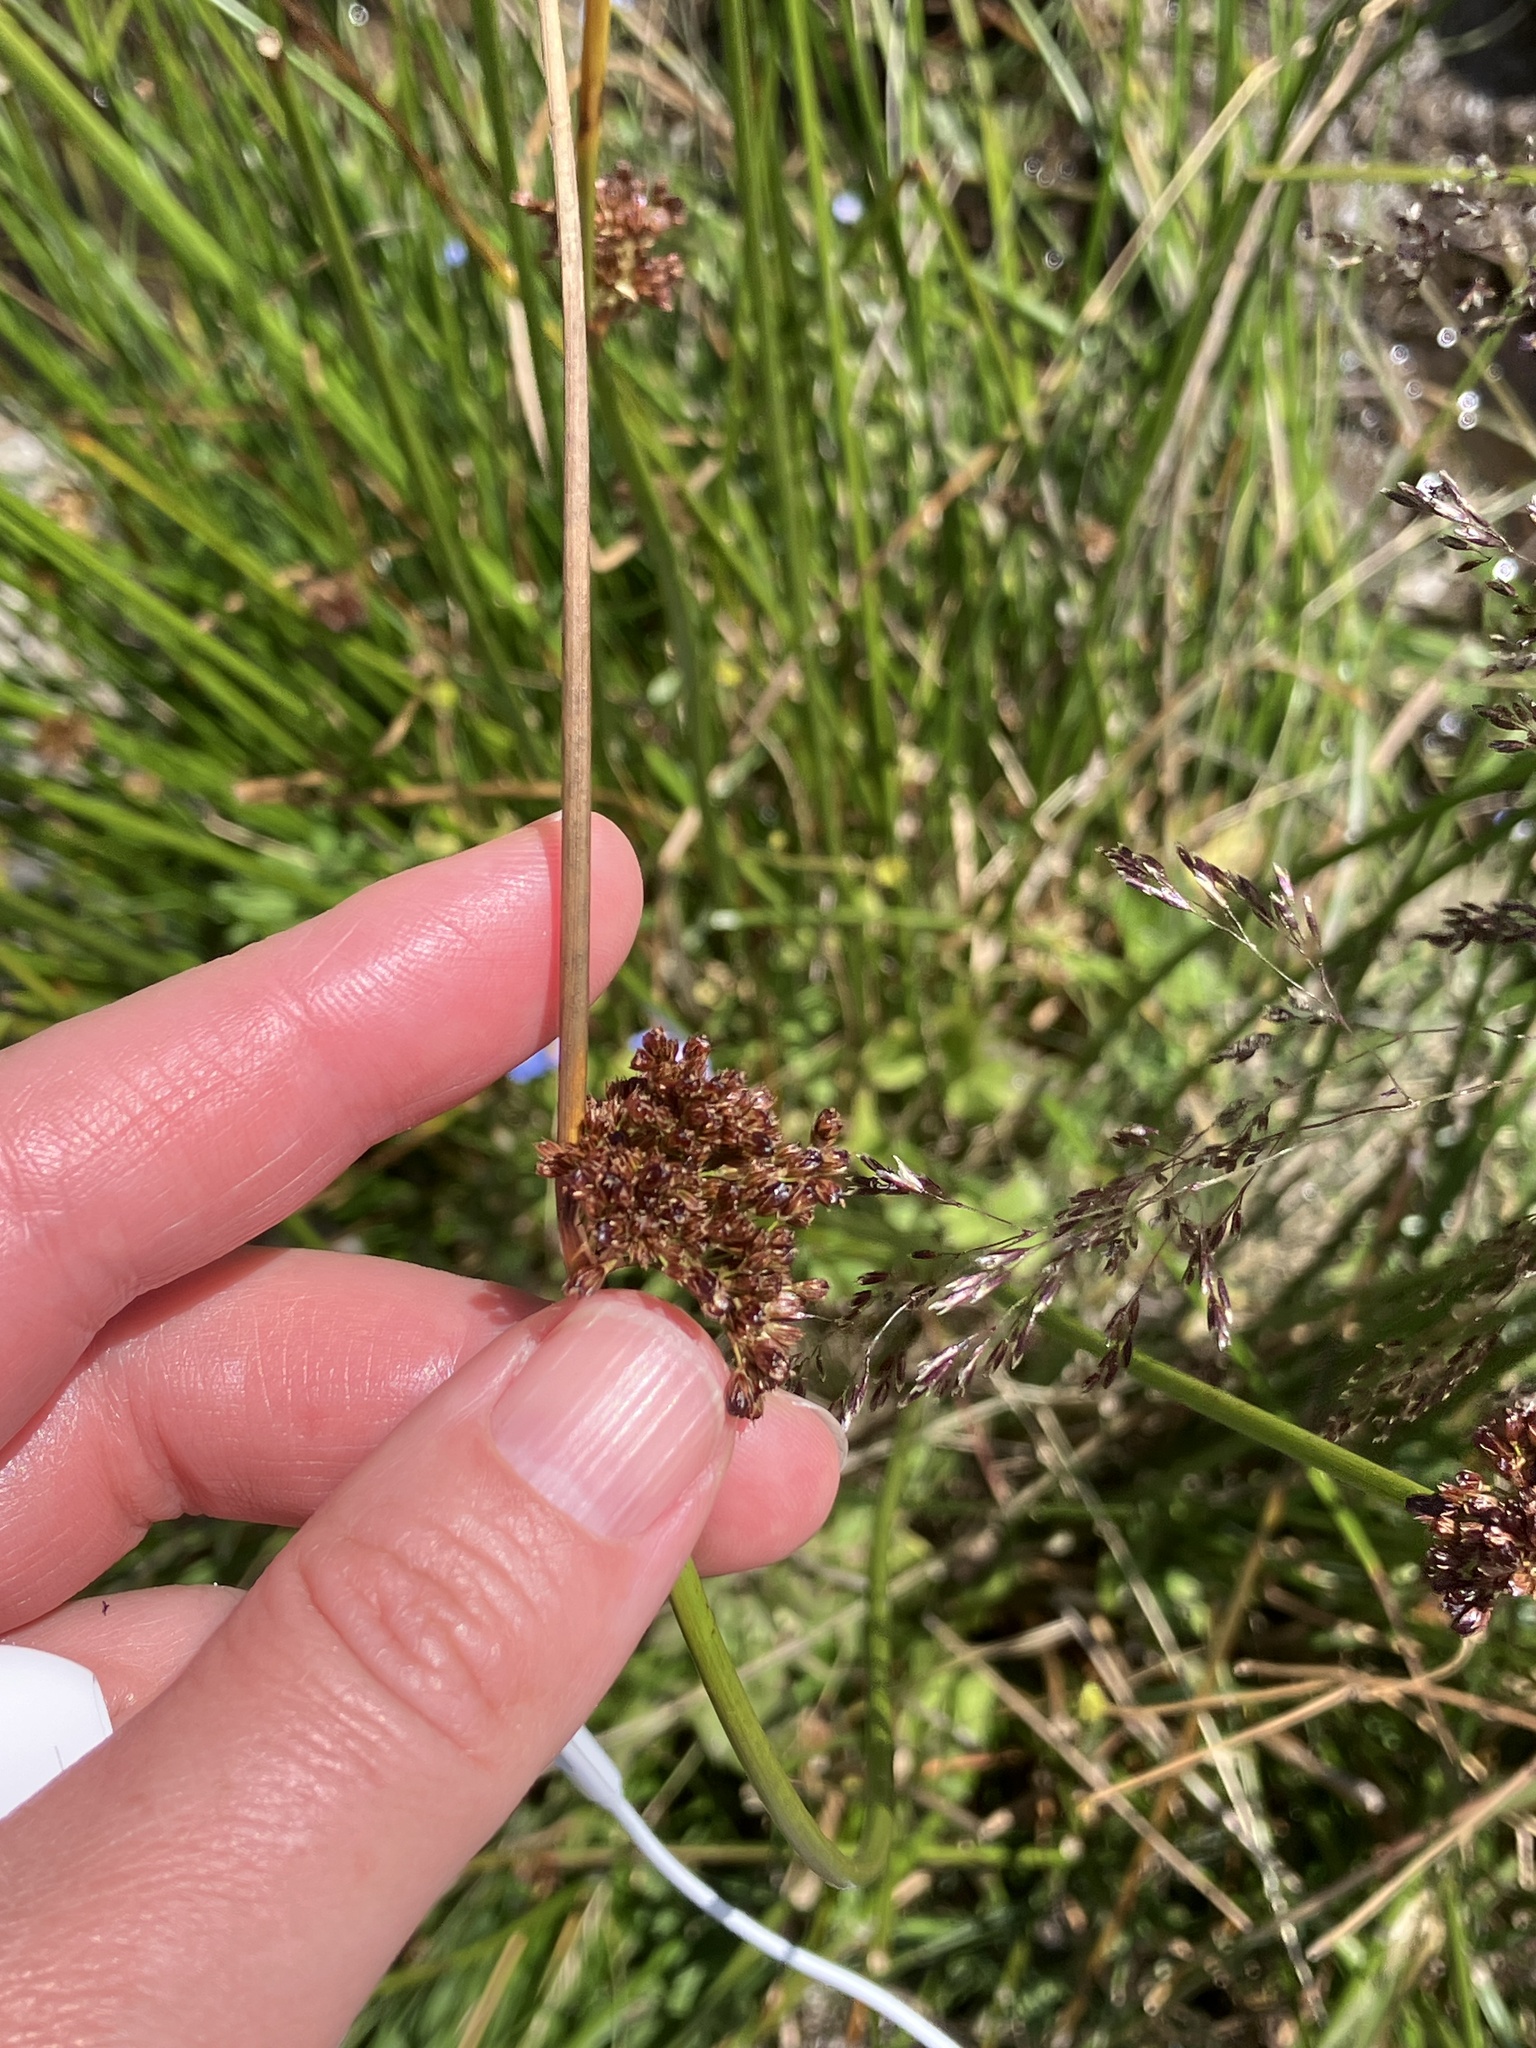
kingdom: Plantae
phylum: Tracheophyta
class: Liliopsida
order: Poales
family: Juncaceae
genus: Juncus
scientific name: Juncus effusus
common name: Soft rush
